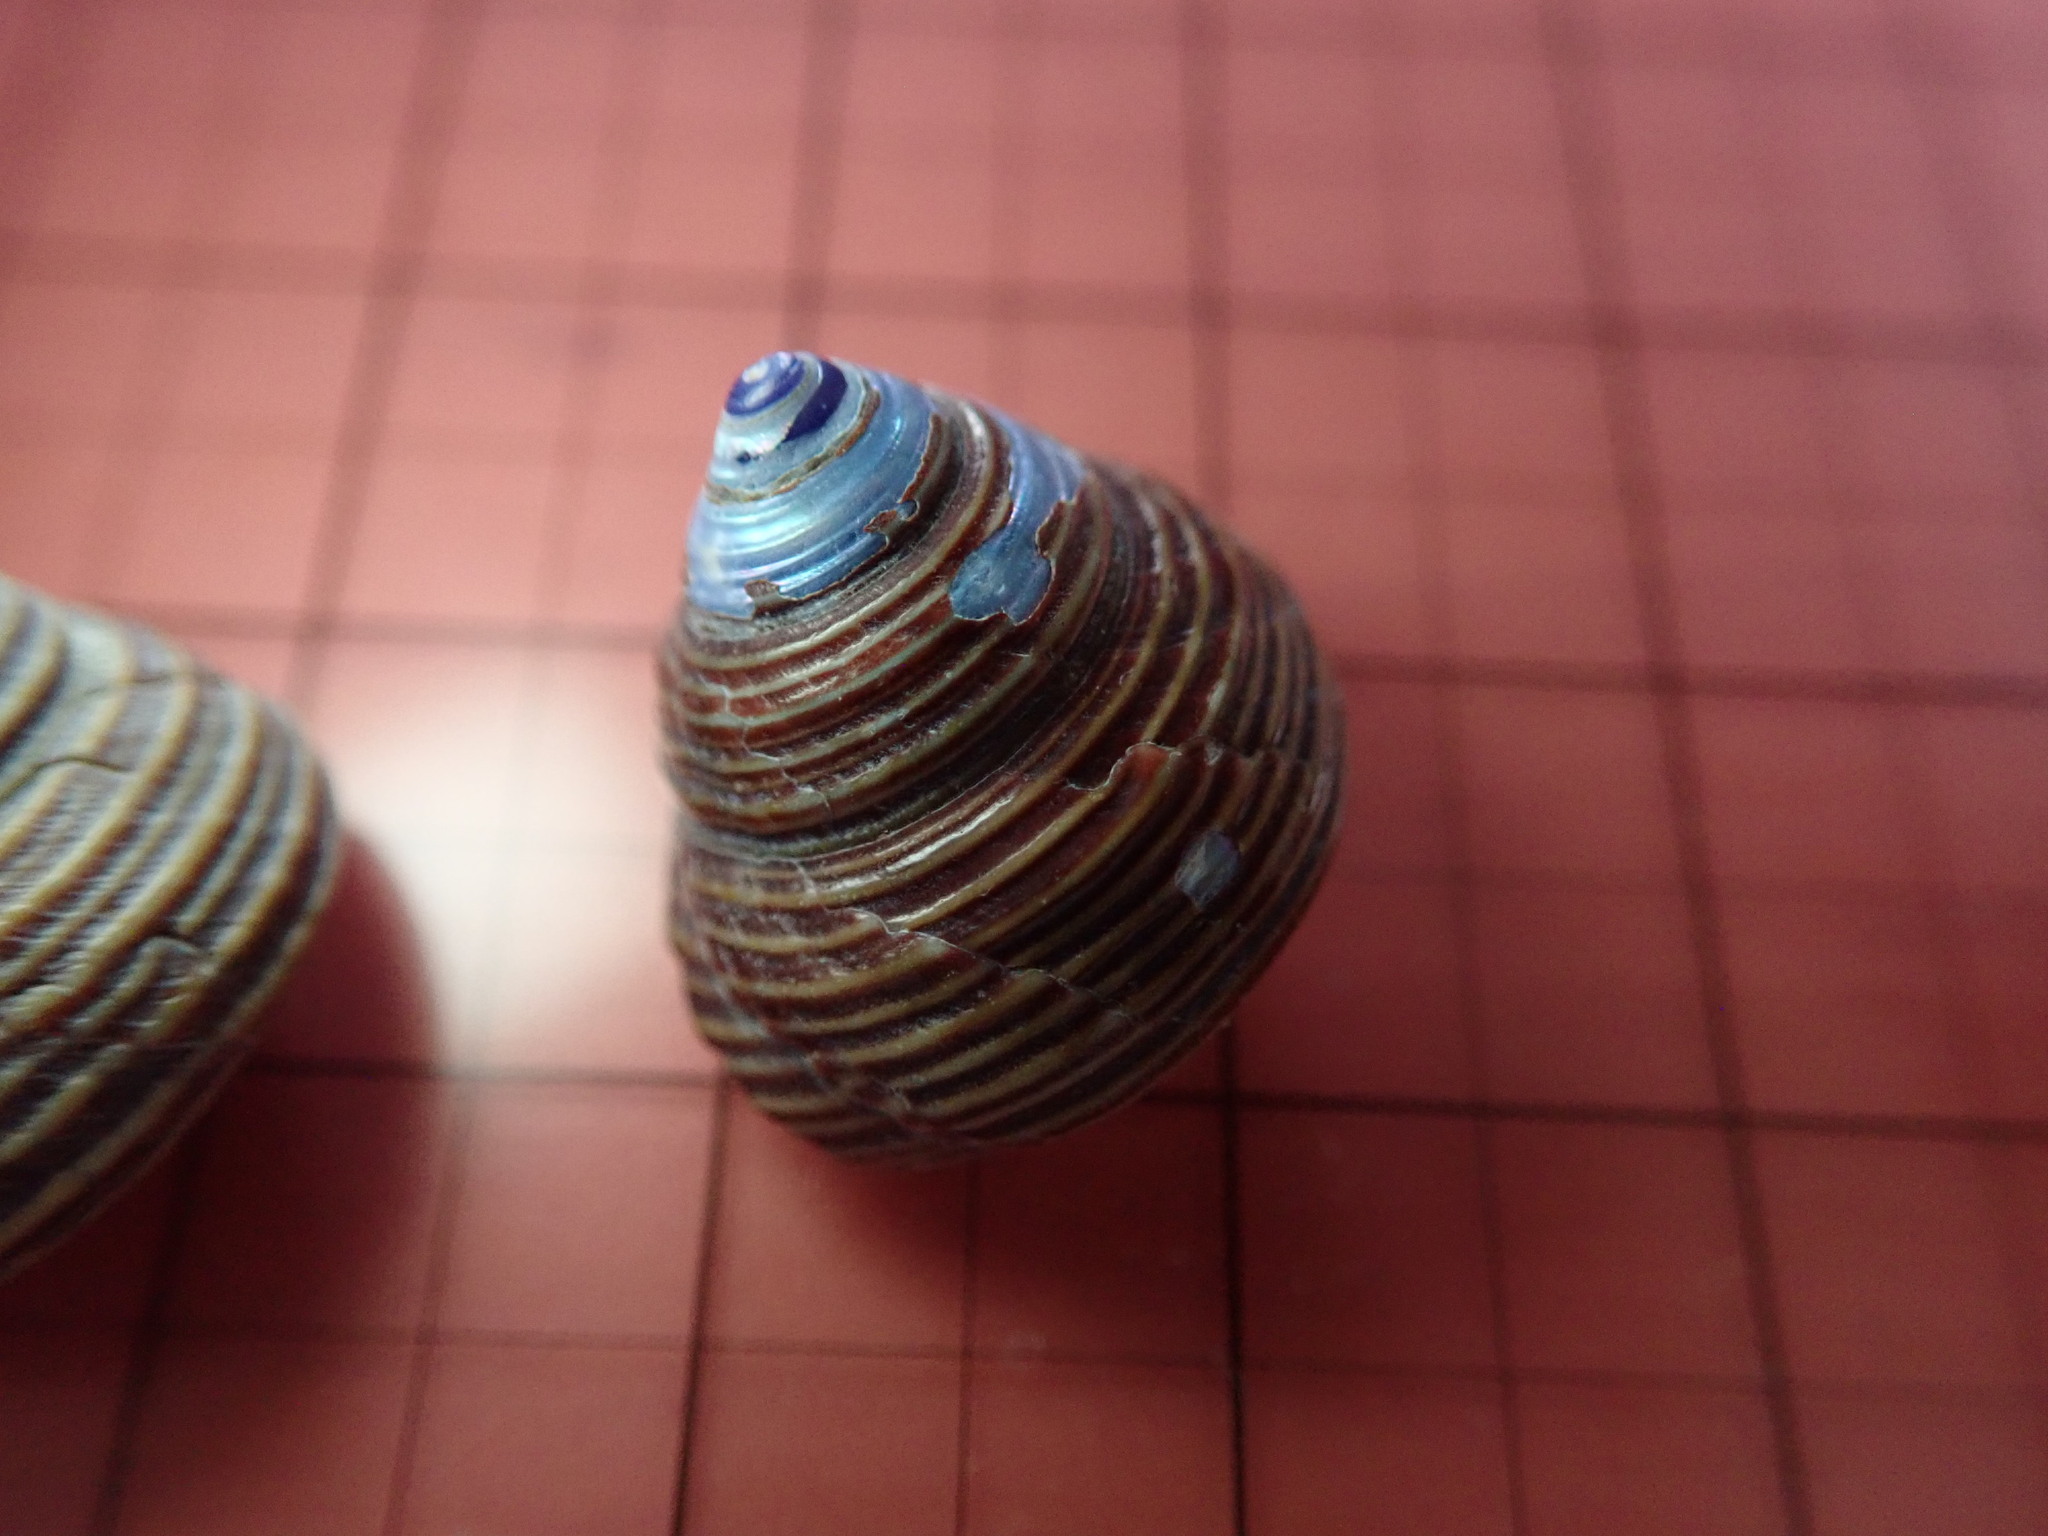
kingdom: Animalia
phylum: Mollusca
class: Gastropoda
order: Trochida
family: Calliostomatidae
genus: Calliostoma
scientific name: Calliostoma ligatum
